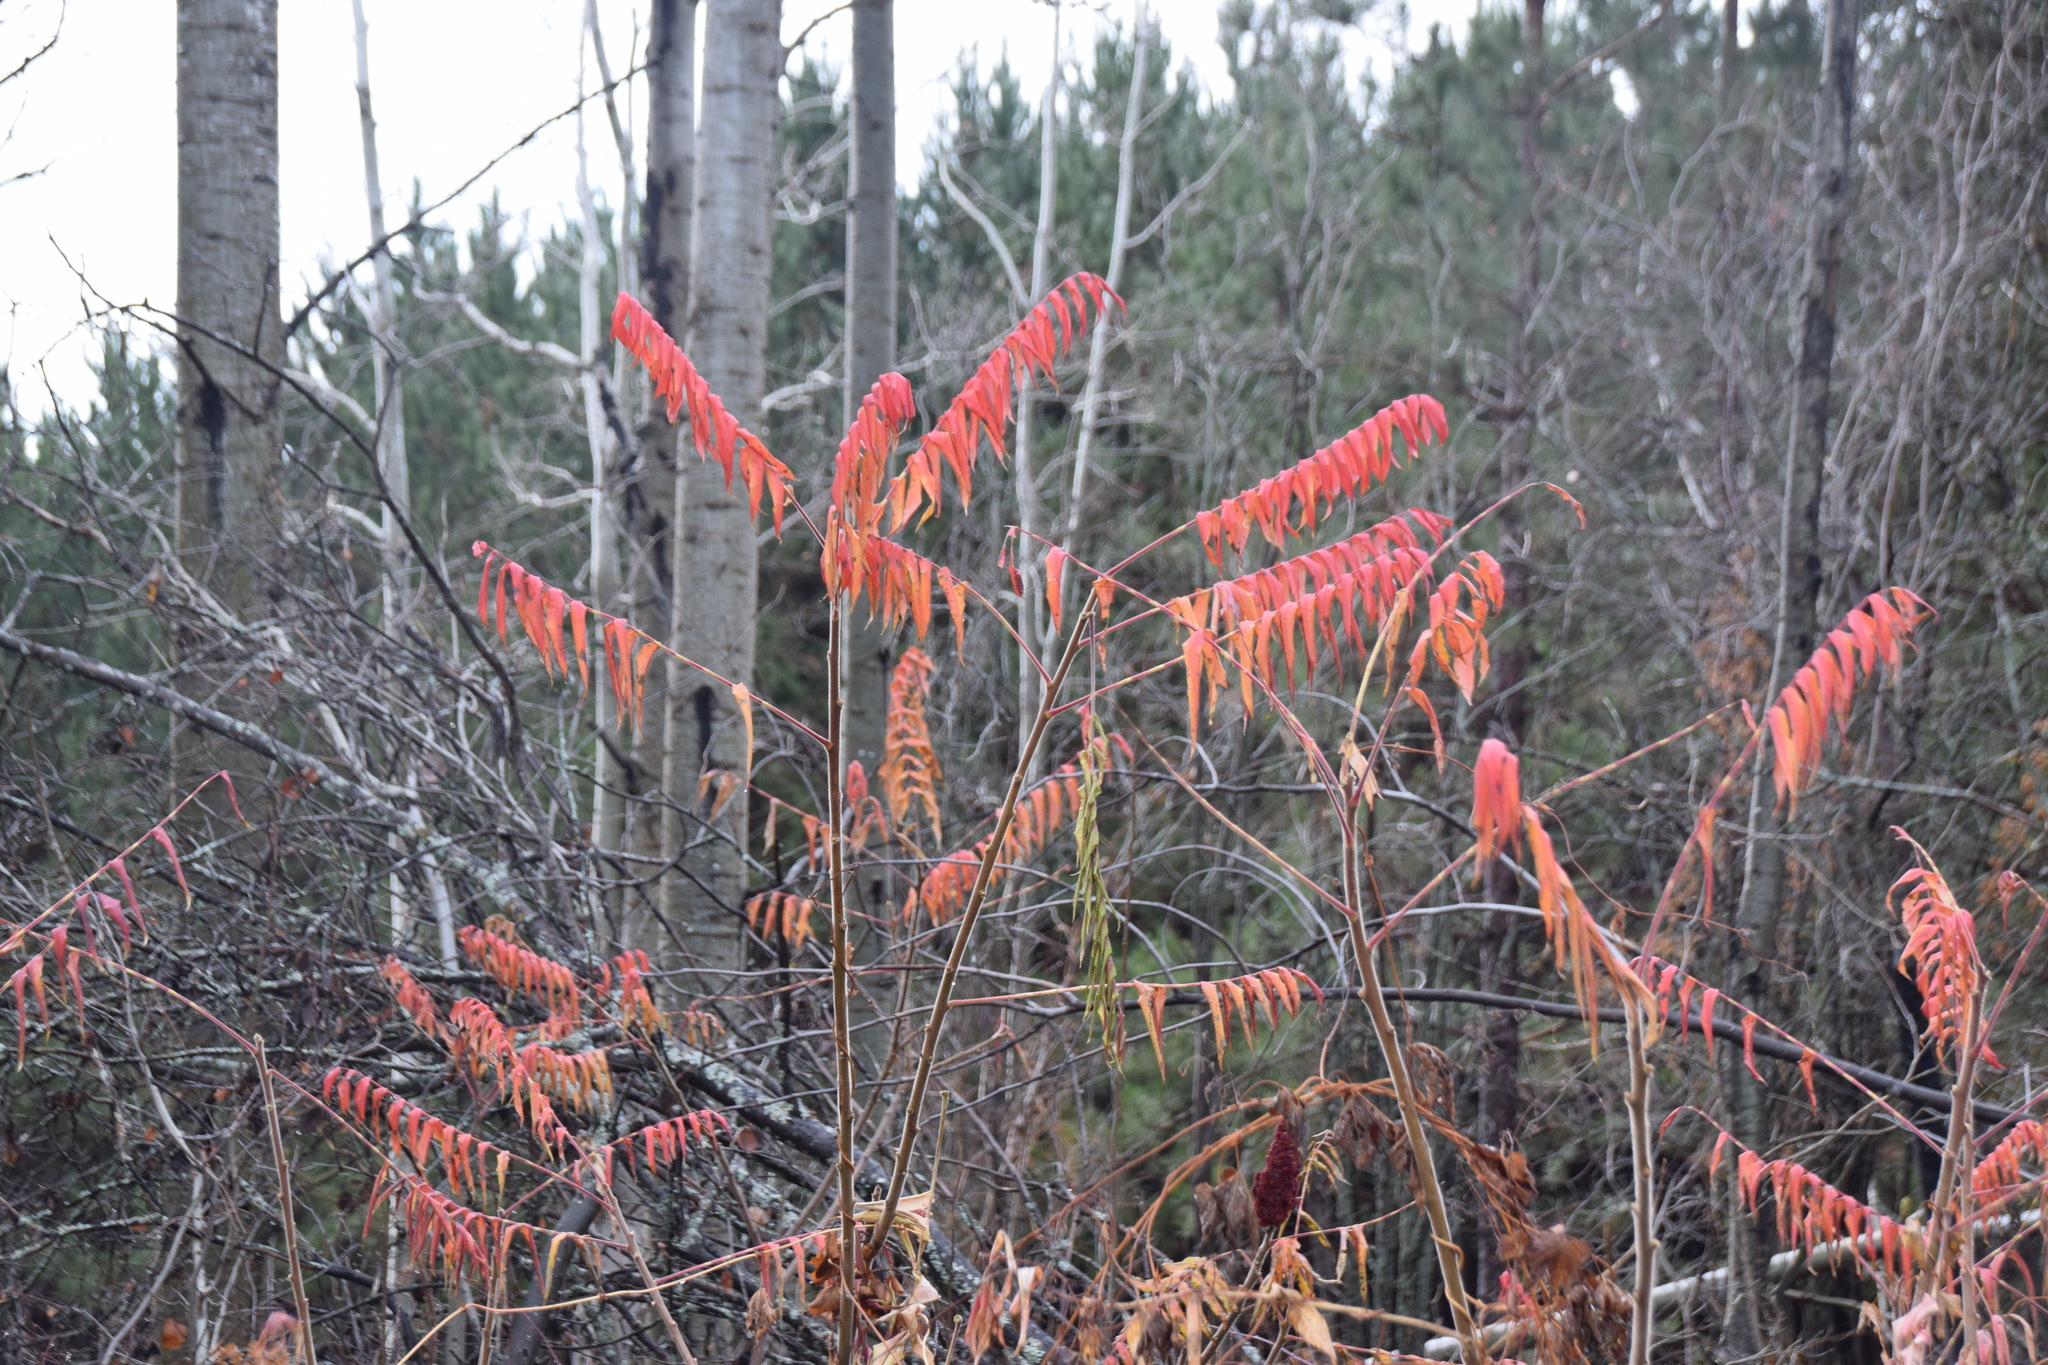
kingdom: Plantae
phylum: Tracheophyta
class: Magnoliopsida
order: Sapindales
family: Anacardiaceae
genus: Rhus
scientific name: Rhus typhina
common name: Staghorn sumac
